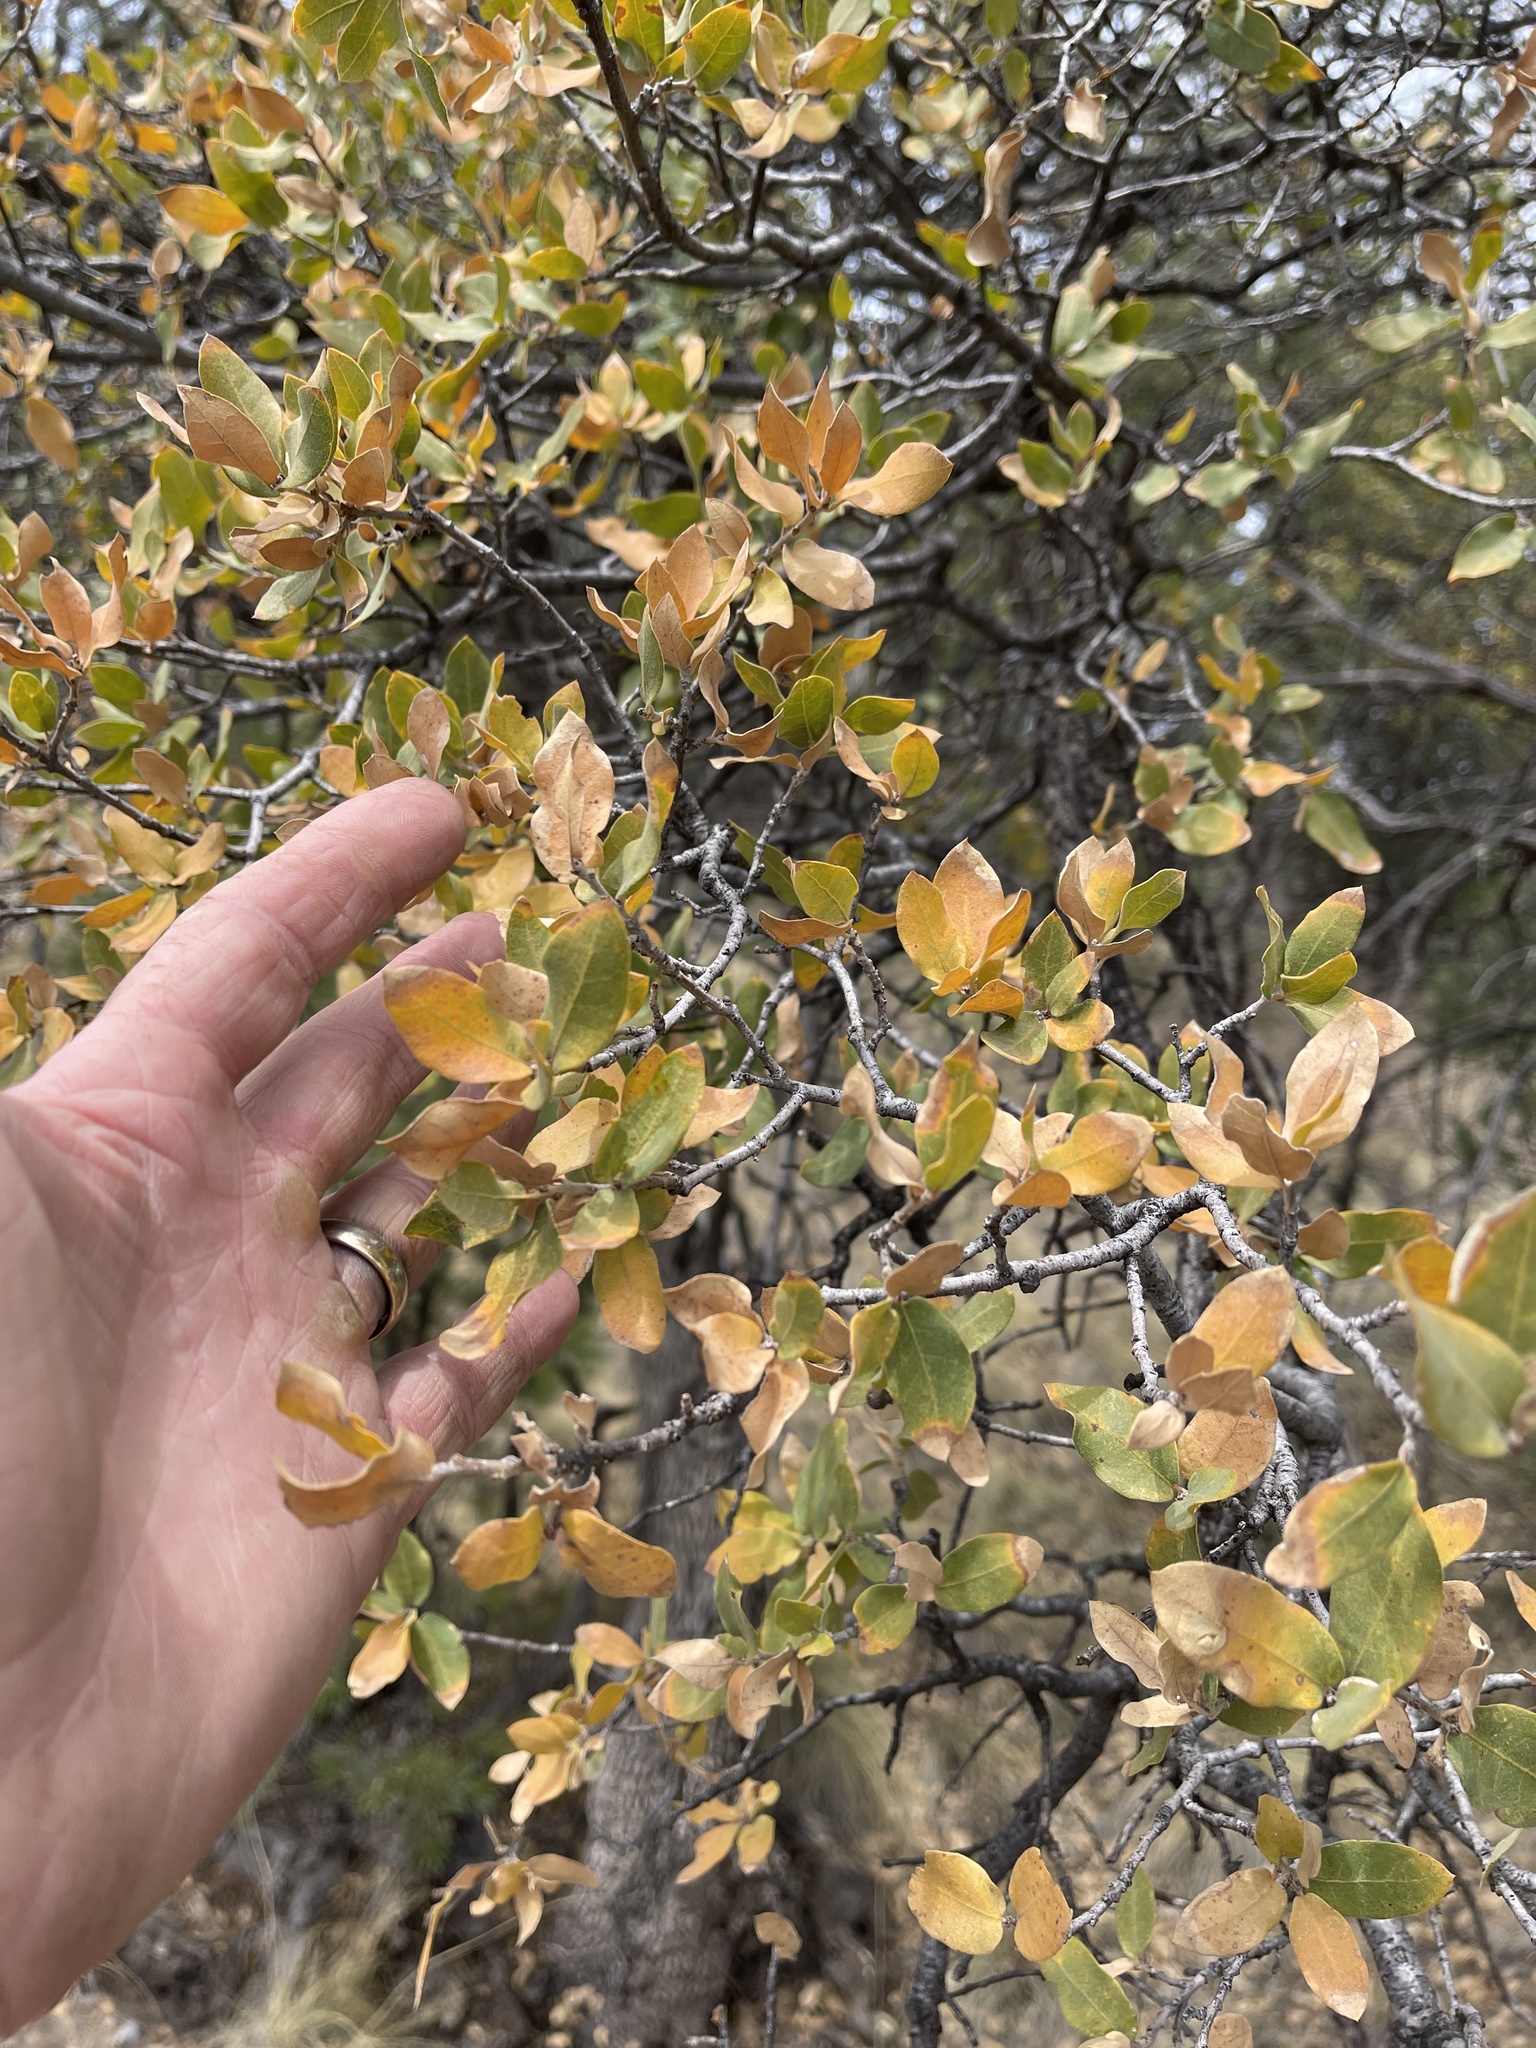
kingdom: Plantae
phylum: Tracheophyta
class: Magnoliopsida
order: Fagales
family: Fagaceae
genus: Quercus
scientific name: Quercus grisea
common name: Gray oak
